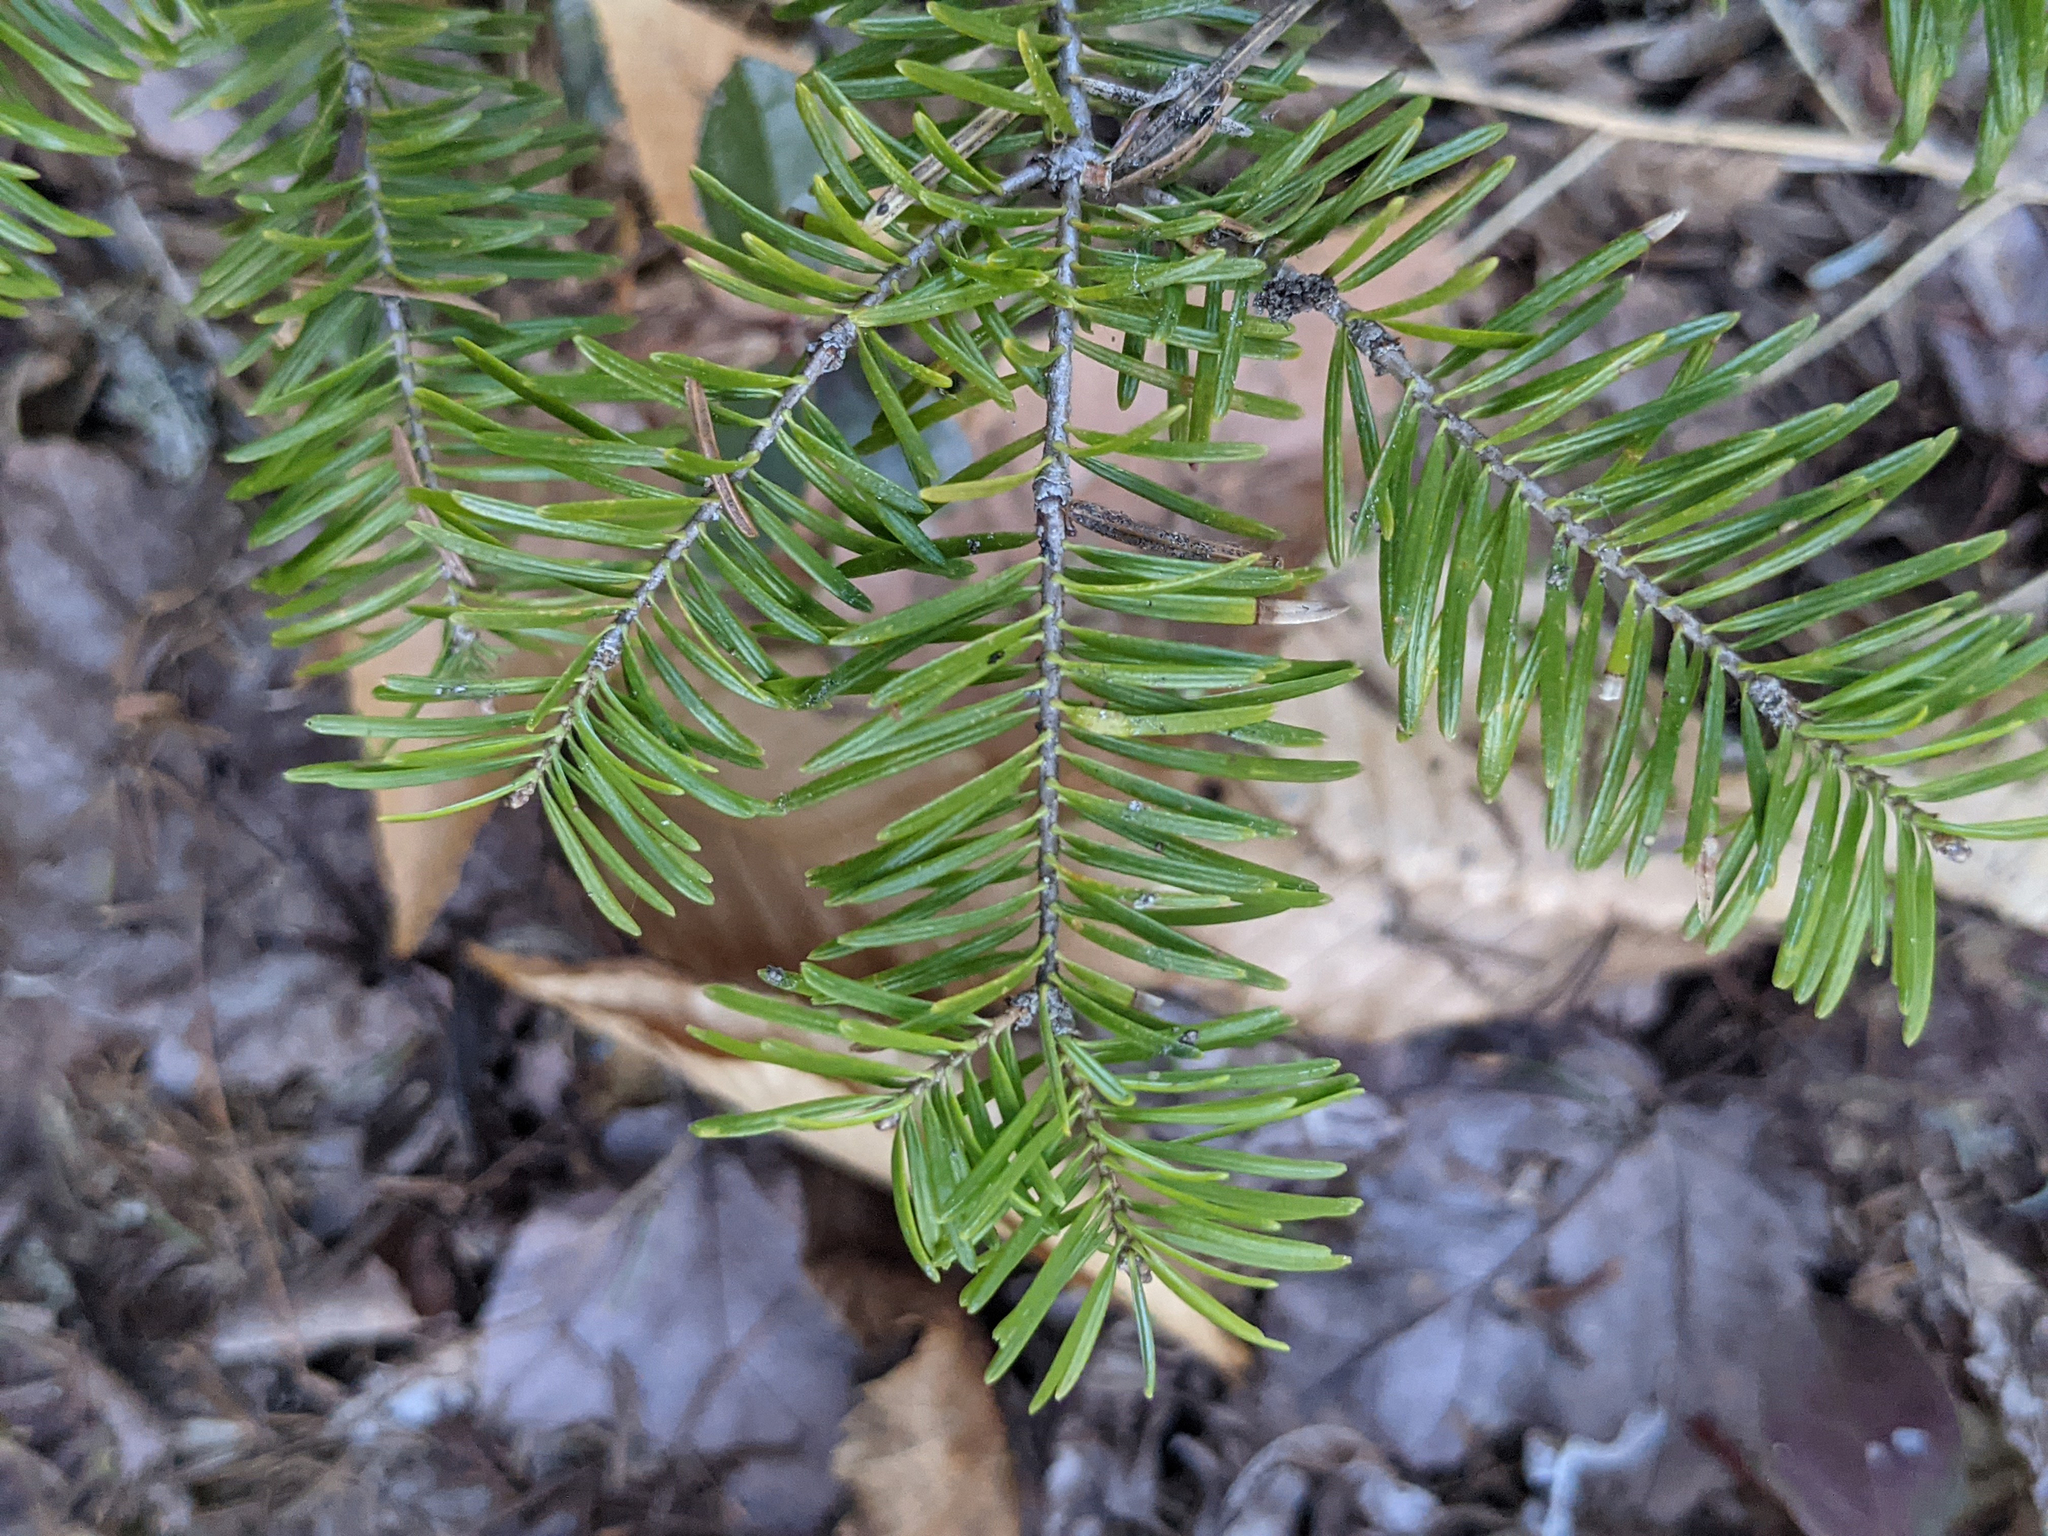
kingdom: Plantae
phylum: Tracheophyta
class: Pinopsida
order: Pinales
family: Pinaceae
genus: Abies
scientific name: Abies balsamea
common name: Balsam fir
